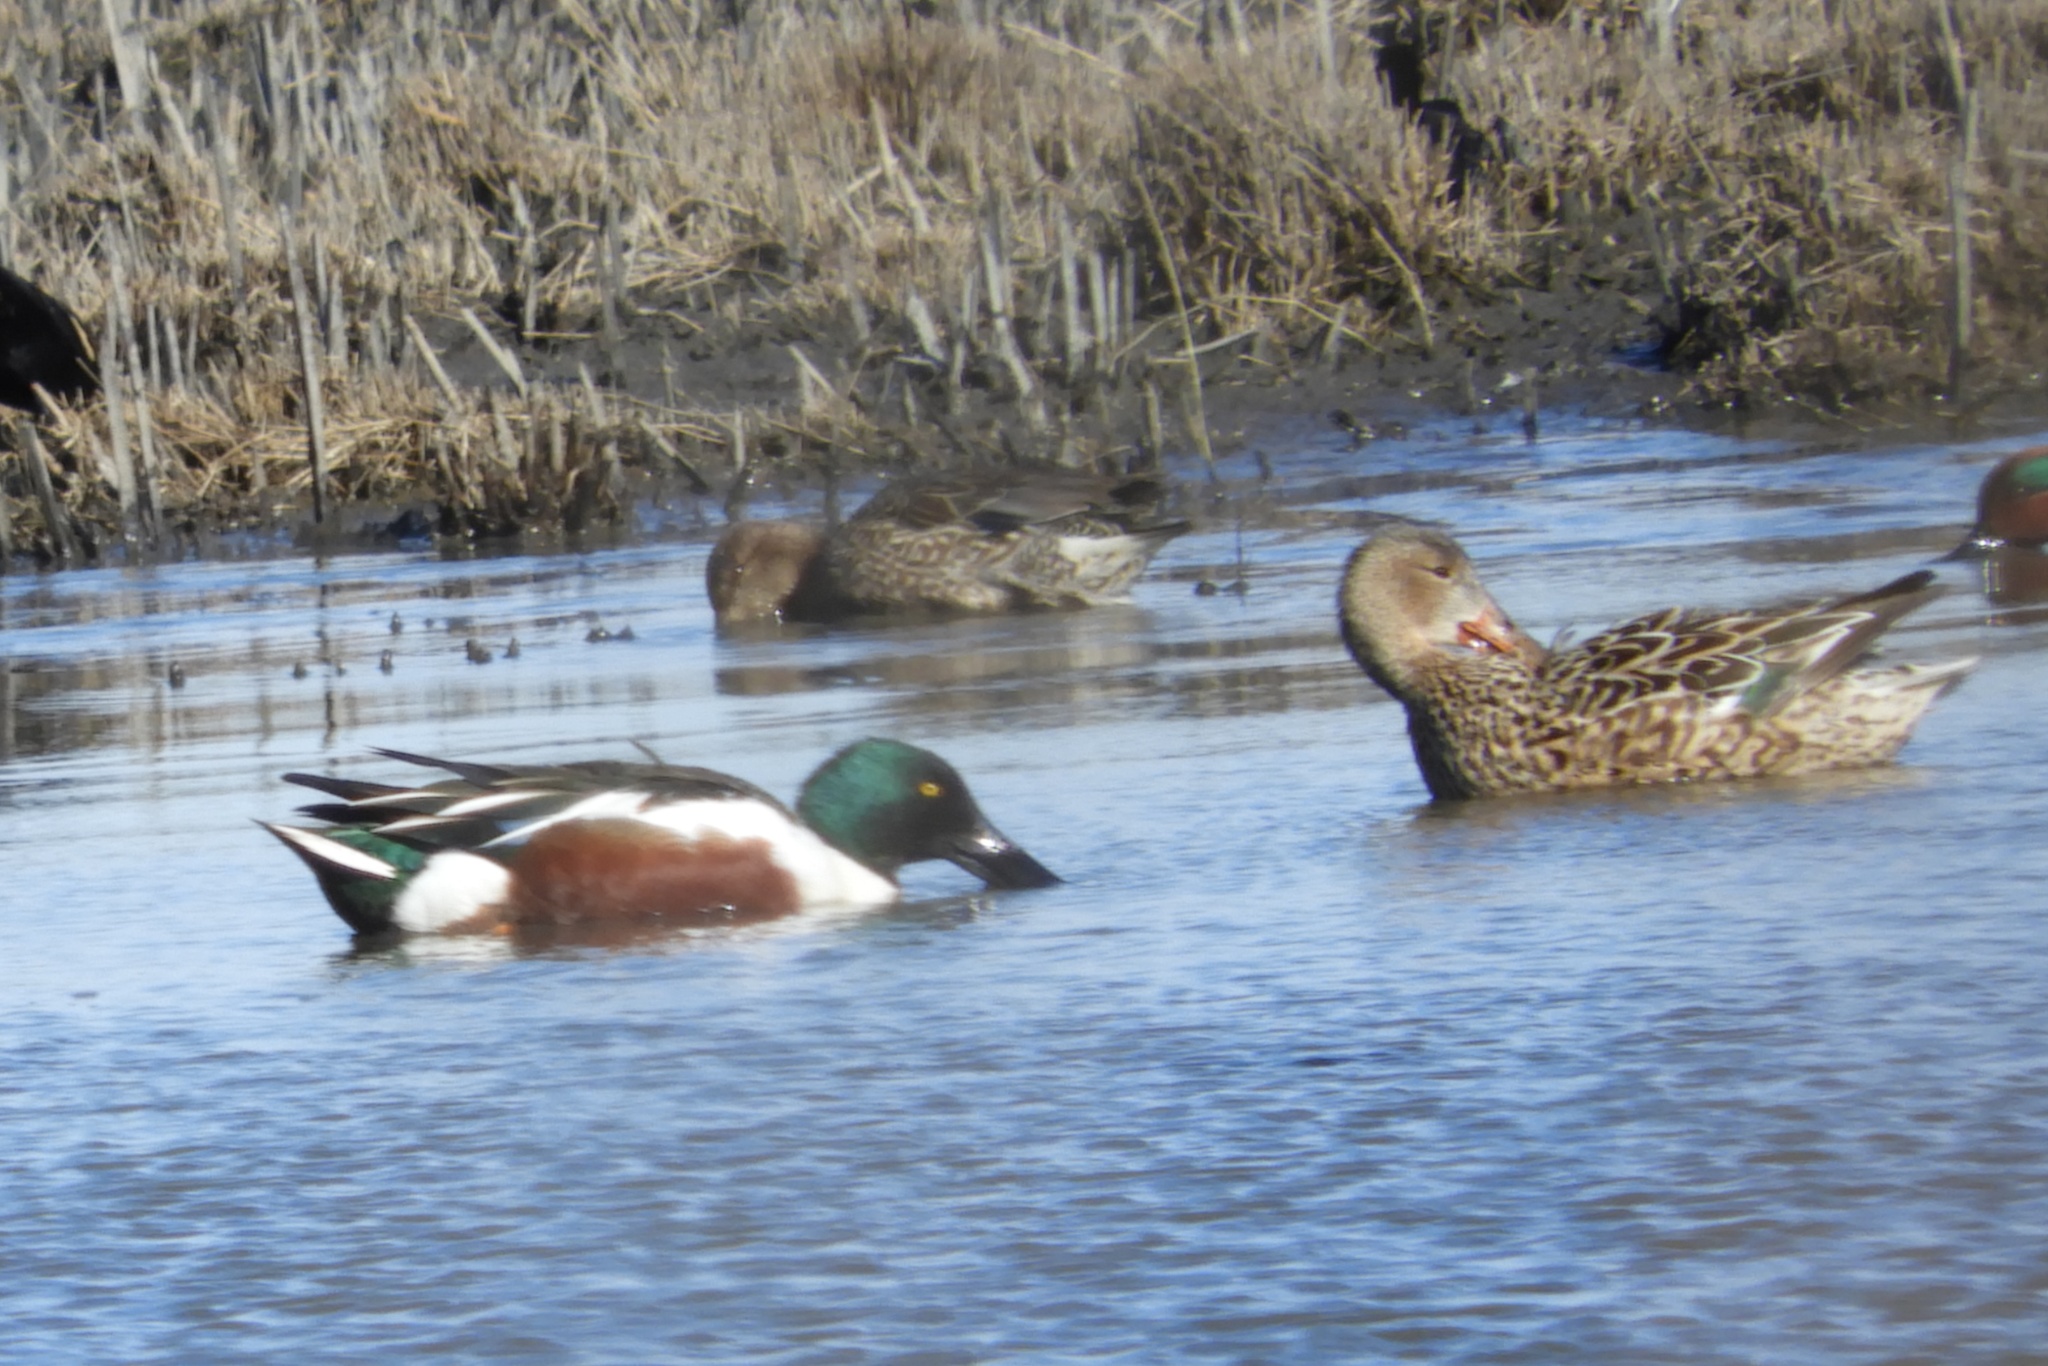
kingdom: Animalia
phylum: Chordata
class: Aves
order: Anseriformes
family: Anatidae
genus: Spatula
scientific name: Spatula clypeata
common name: Northern shoveler
